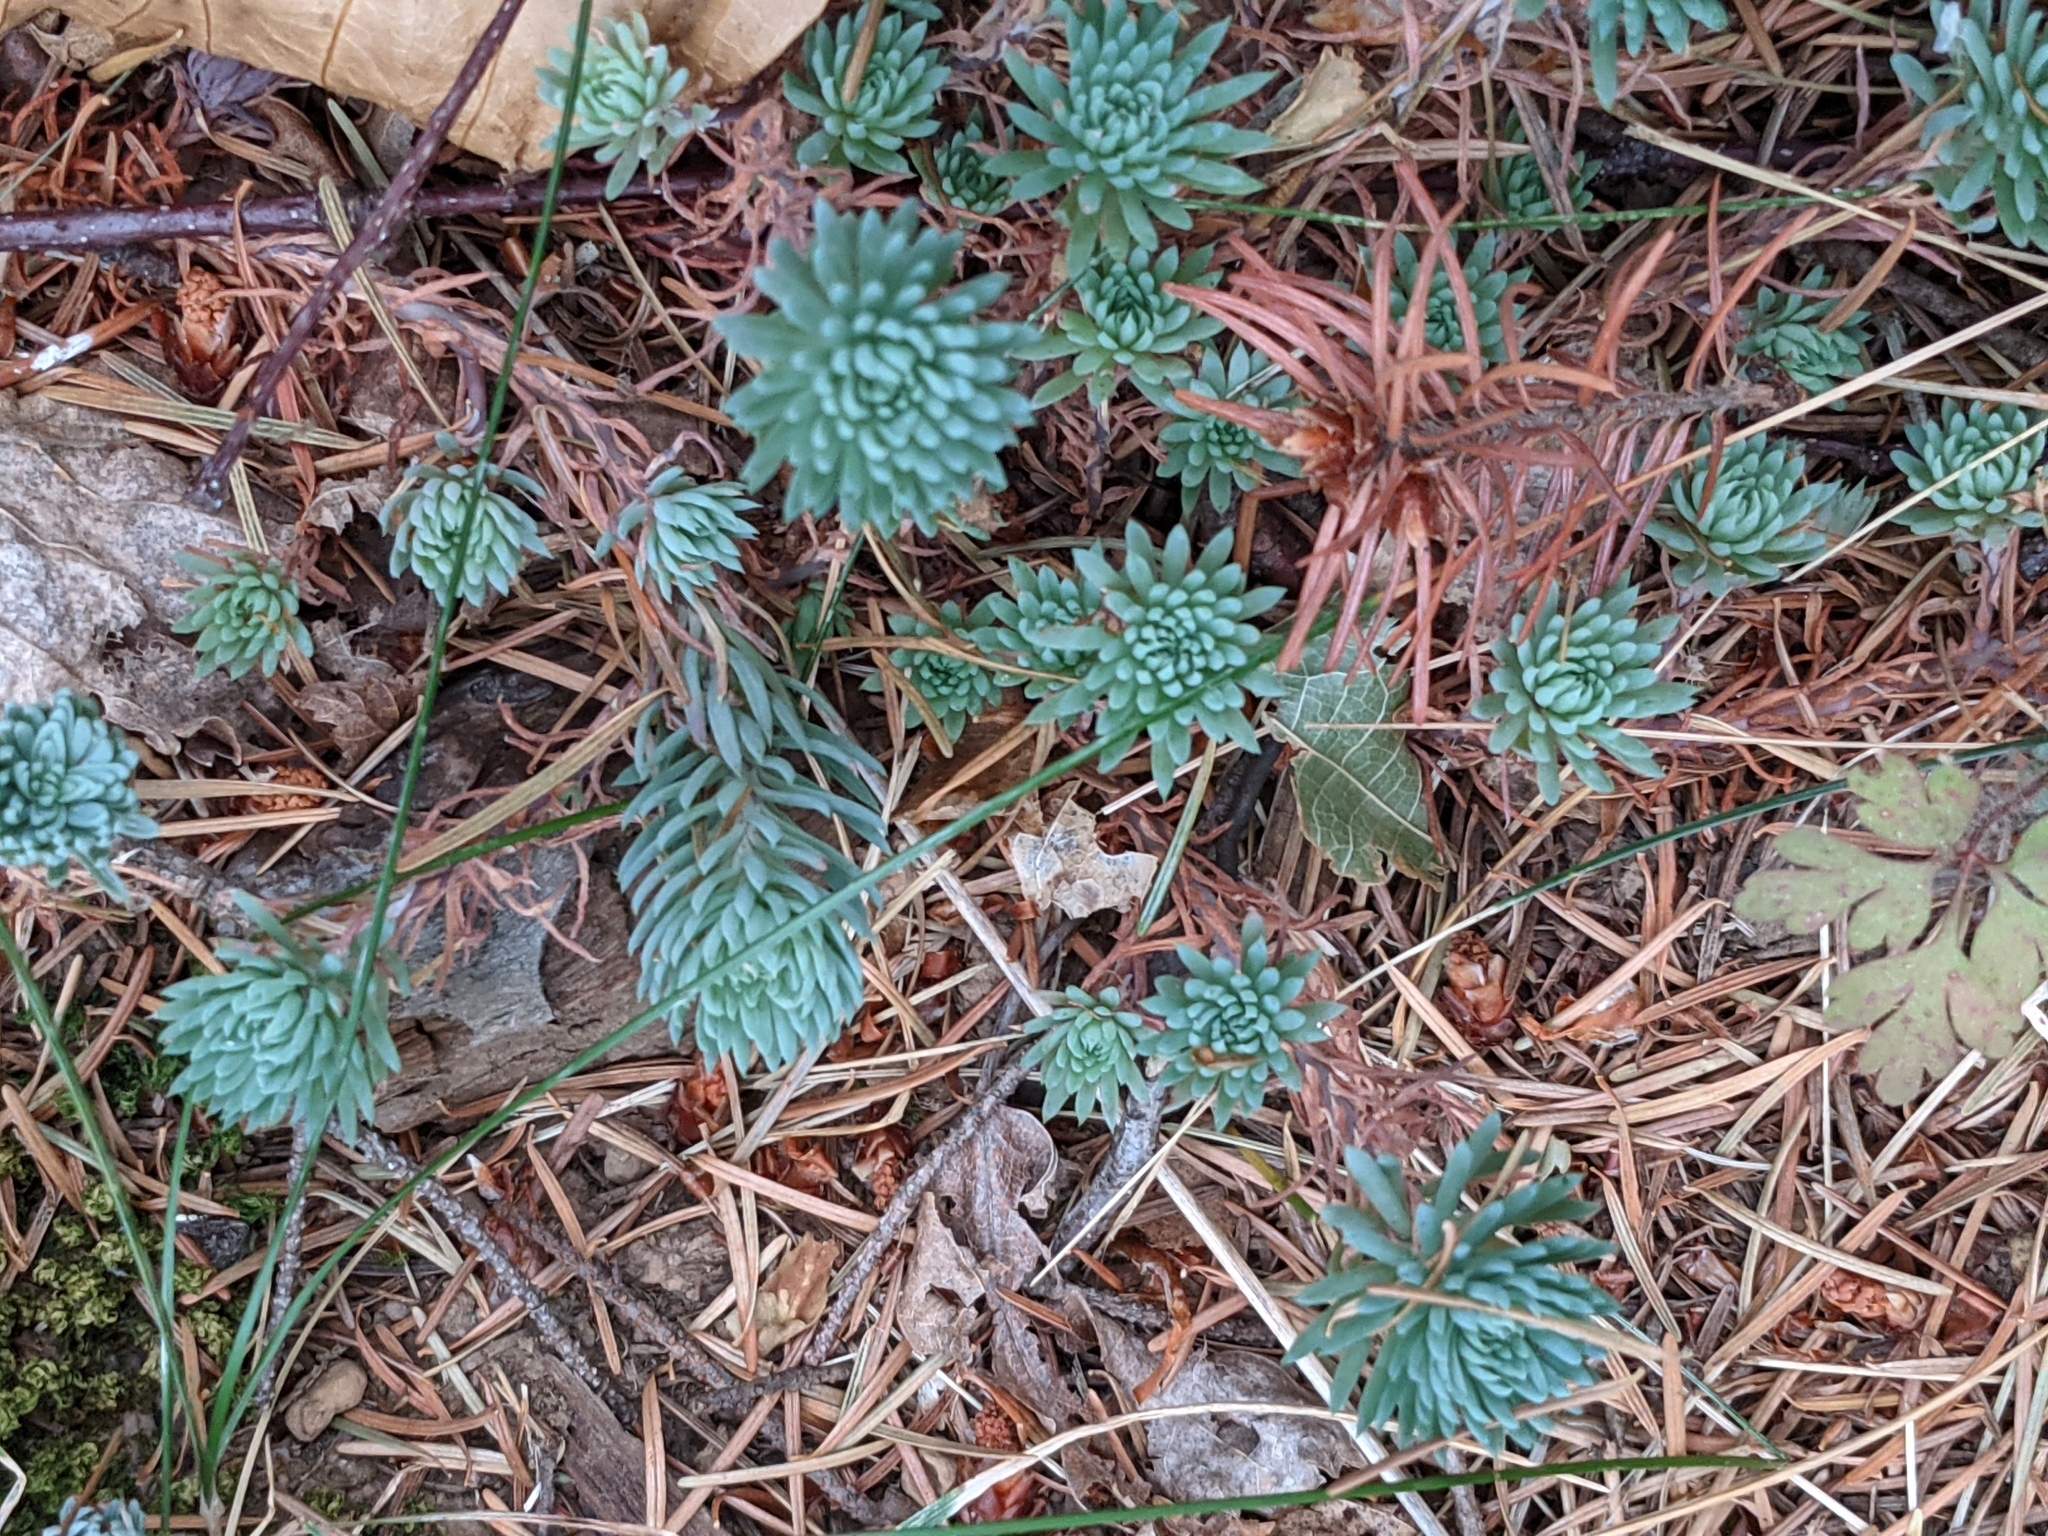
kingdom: Plantae
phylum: Tracheophyta
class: Magnoliopsida
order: Saxifragales
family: Crassulaceae
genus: Petrosedum
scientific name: Petrosedum forsterianum
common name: Forster's stonecrop
